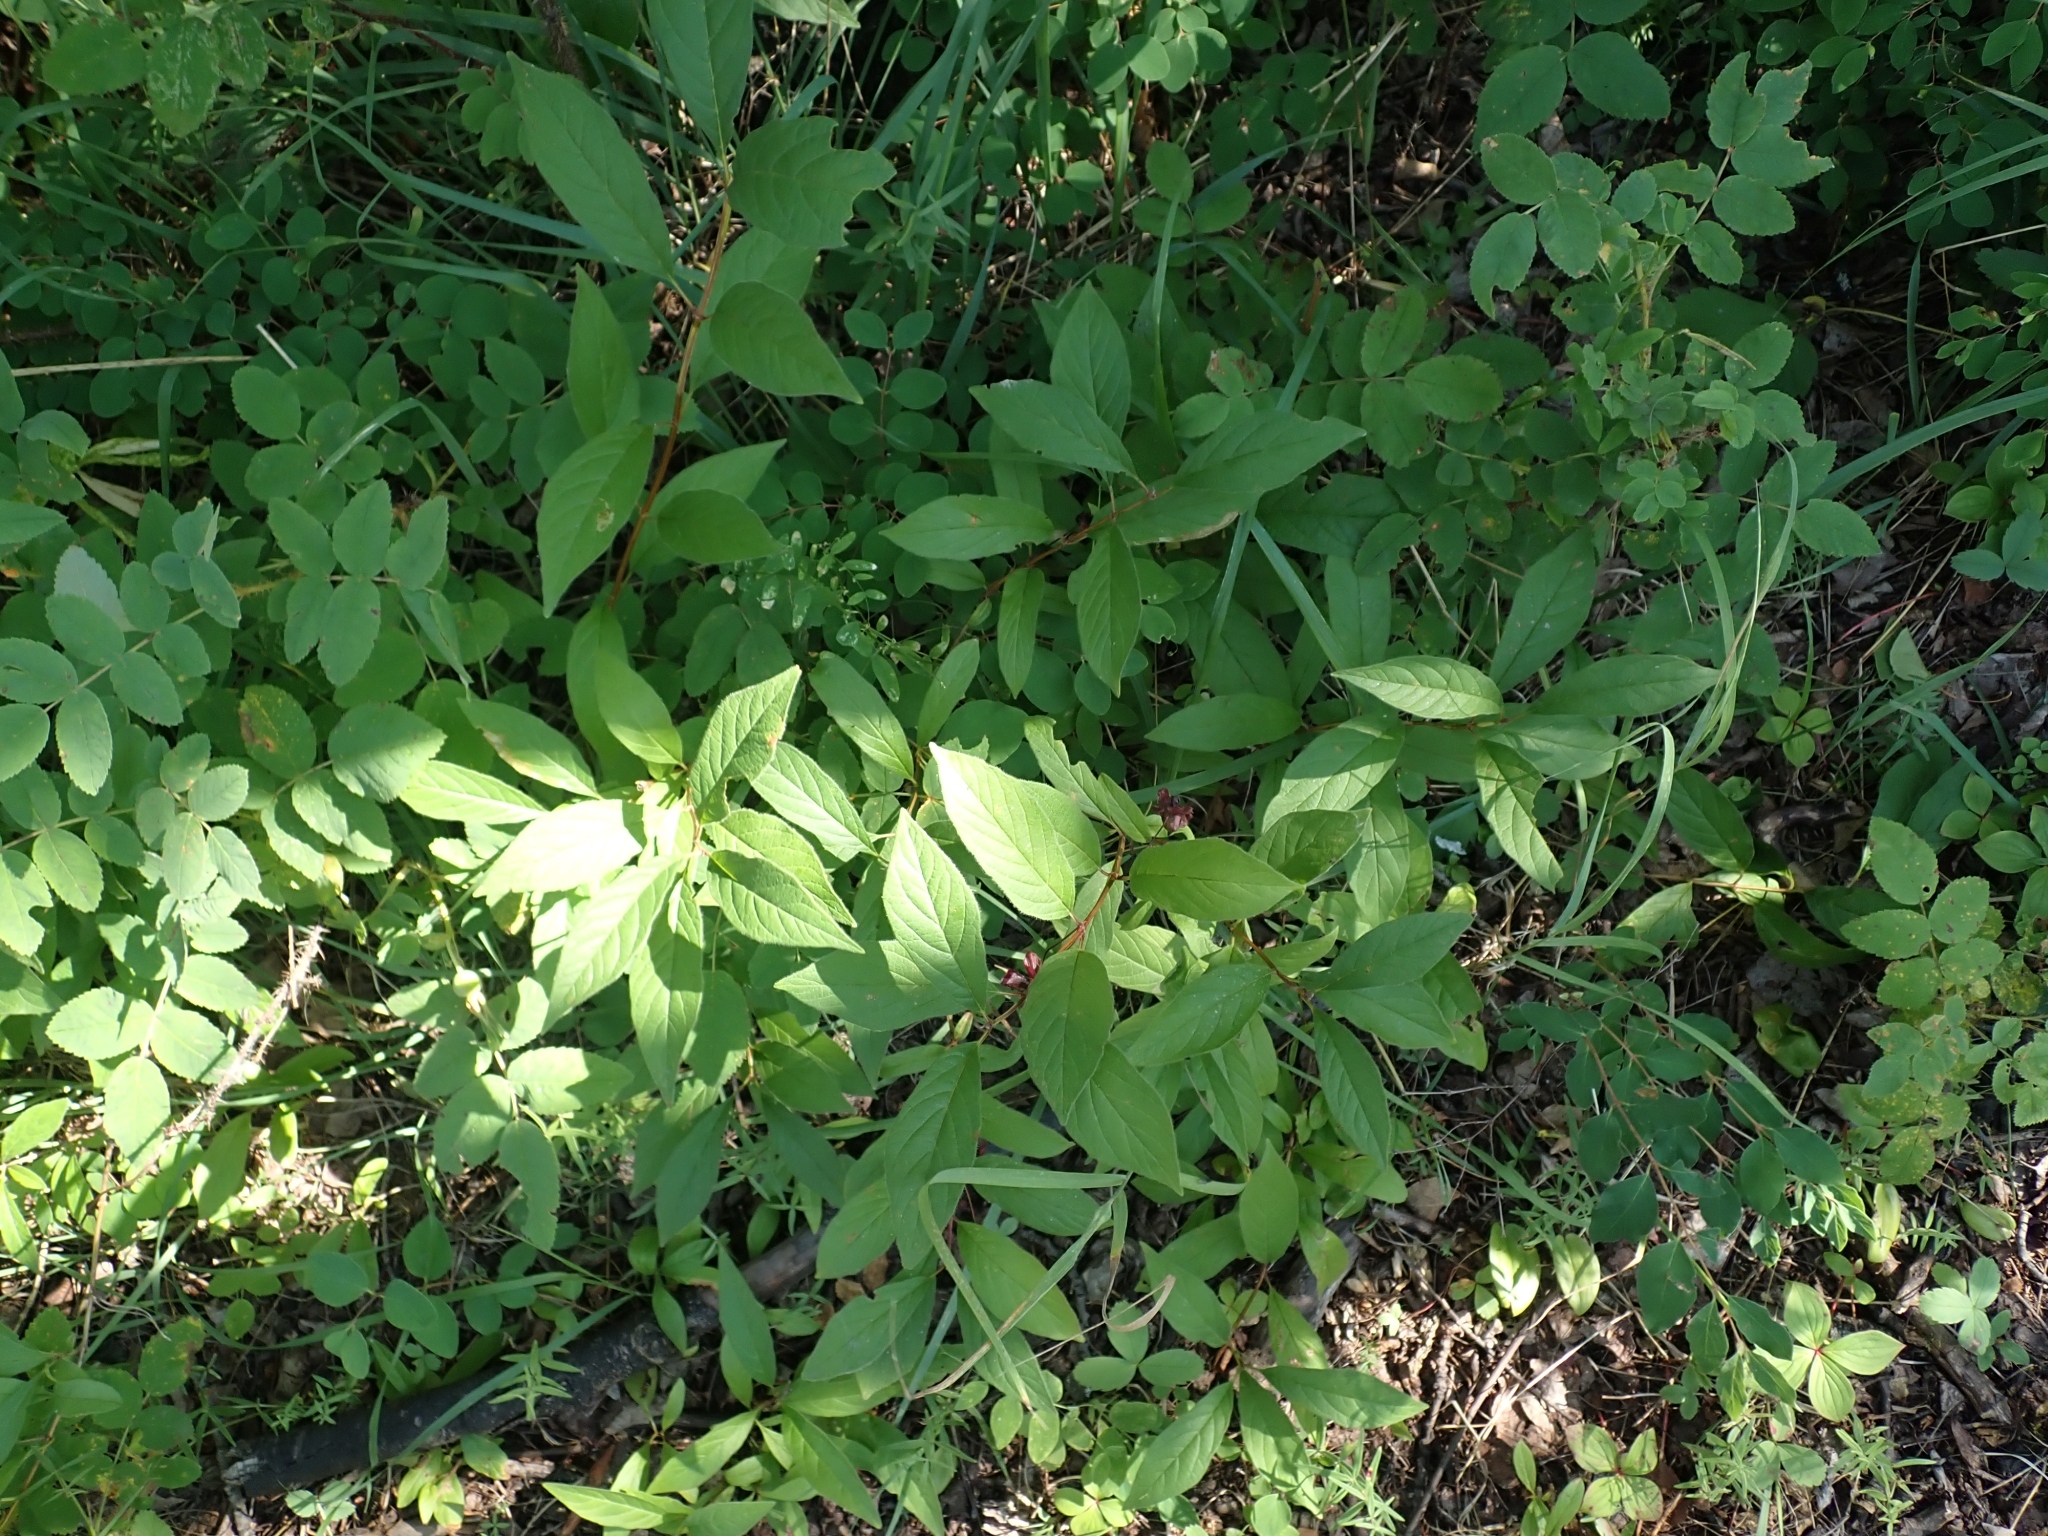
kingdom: Plantae
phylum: Tracheophyta
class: Magnoliopsida
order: Dipsacales
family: Caprifoliaceae
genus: Lonicera
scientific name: Lonicera involucrata
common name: Californian honeysuckle
